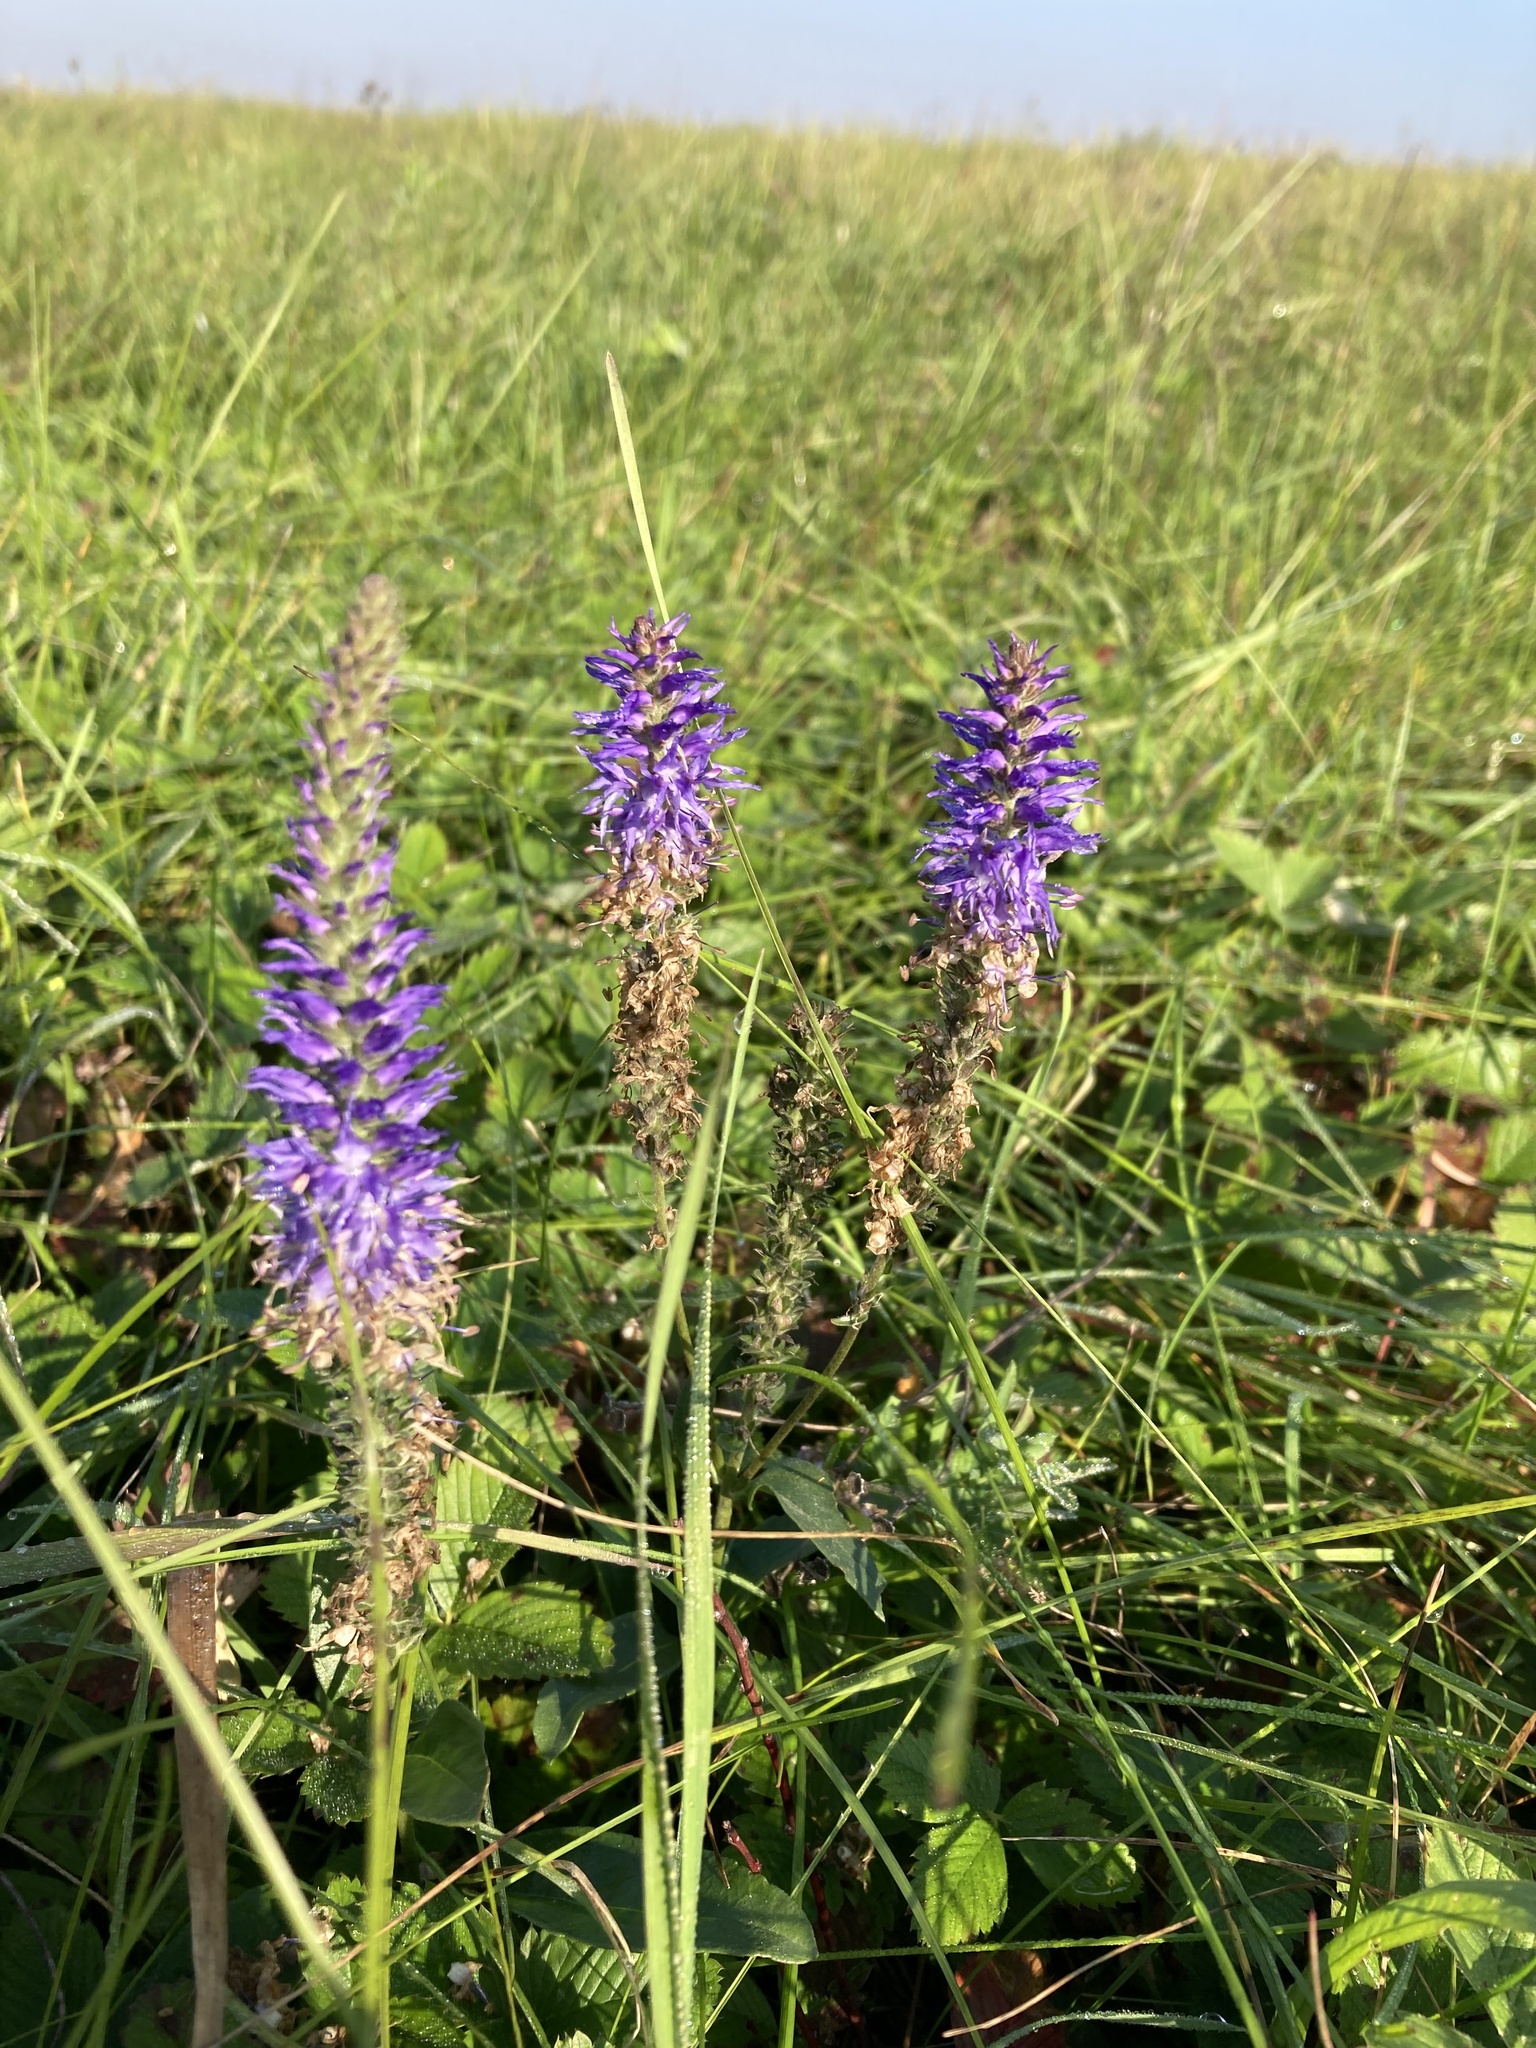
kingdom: Plantae
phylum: Tracheophyta
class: Magnoliopsida
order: Lamiales
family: Plantaginaceae
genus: Veronica
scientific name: Veronica spicata
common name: Spiked speedwell
